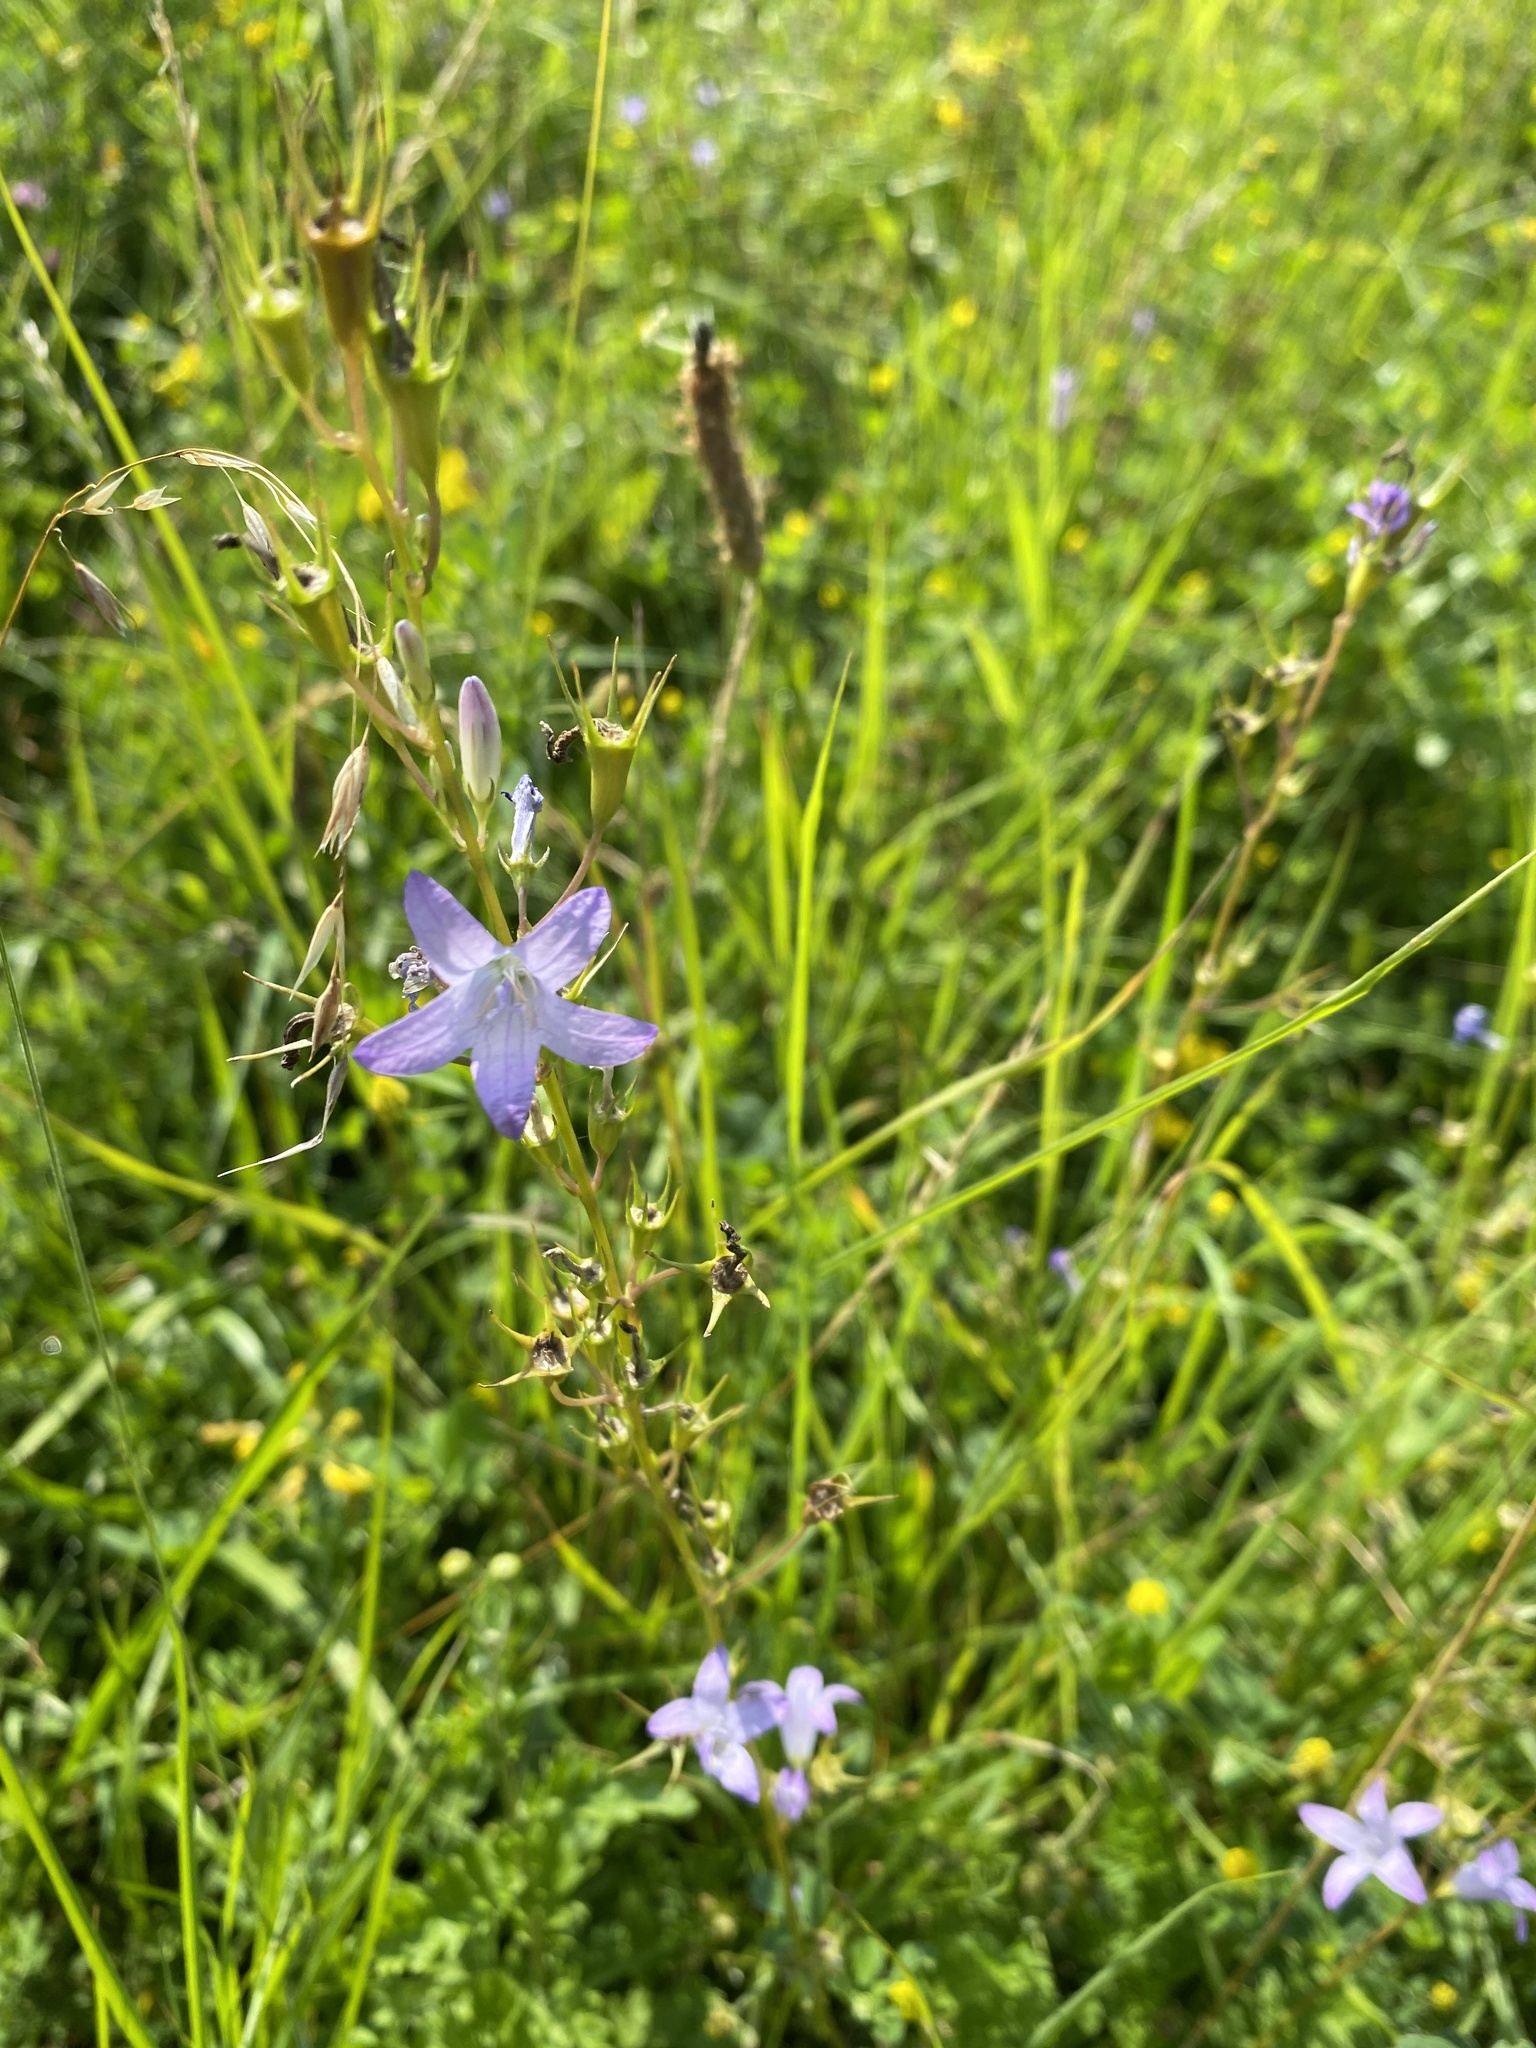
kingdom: Plantae
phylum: Tracheophyta
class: Magnoliopsida
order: Asterales
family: Campanulaceae
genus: Campanula
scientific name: Campanula rapunculus
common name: Rampion bellflower
